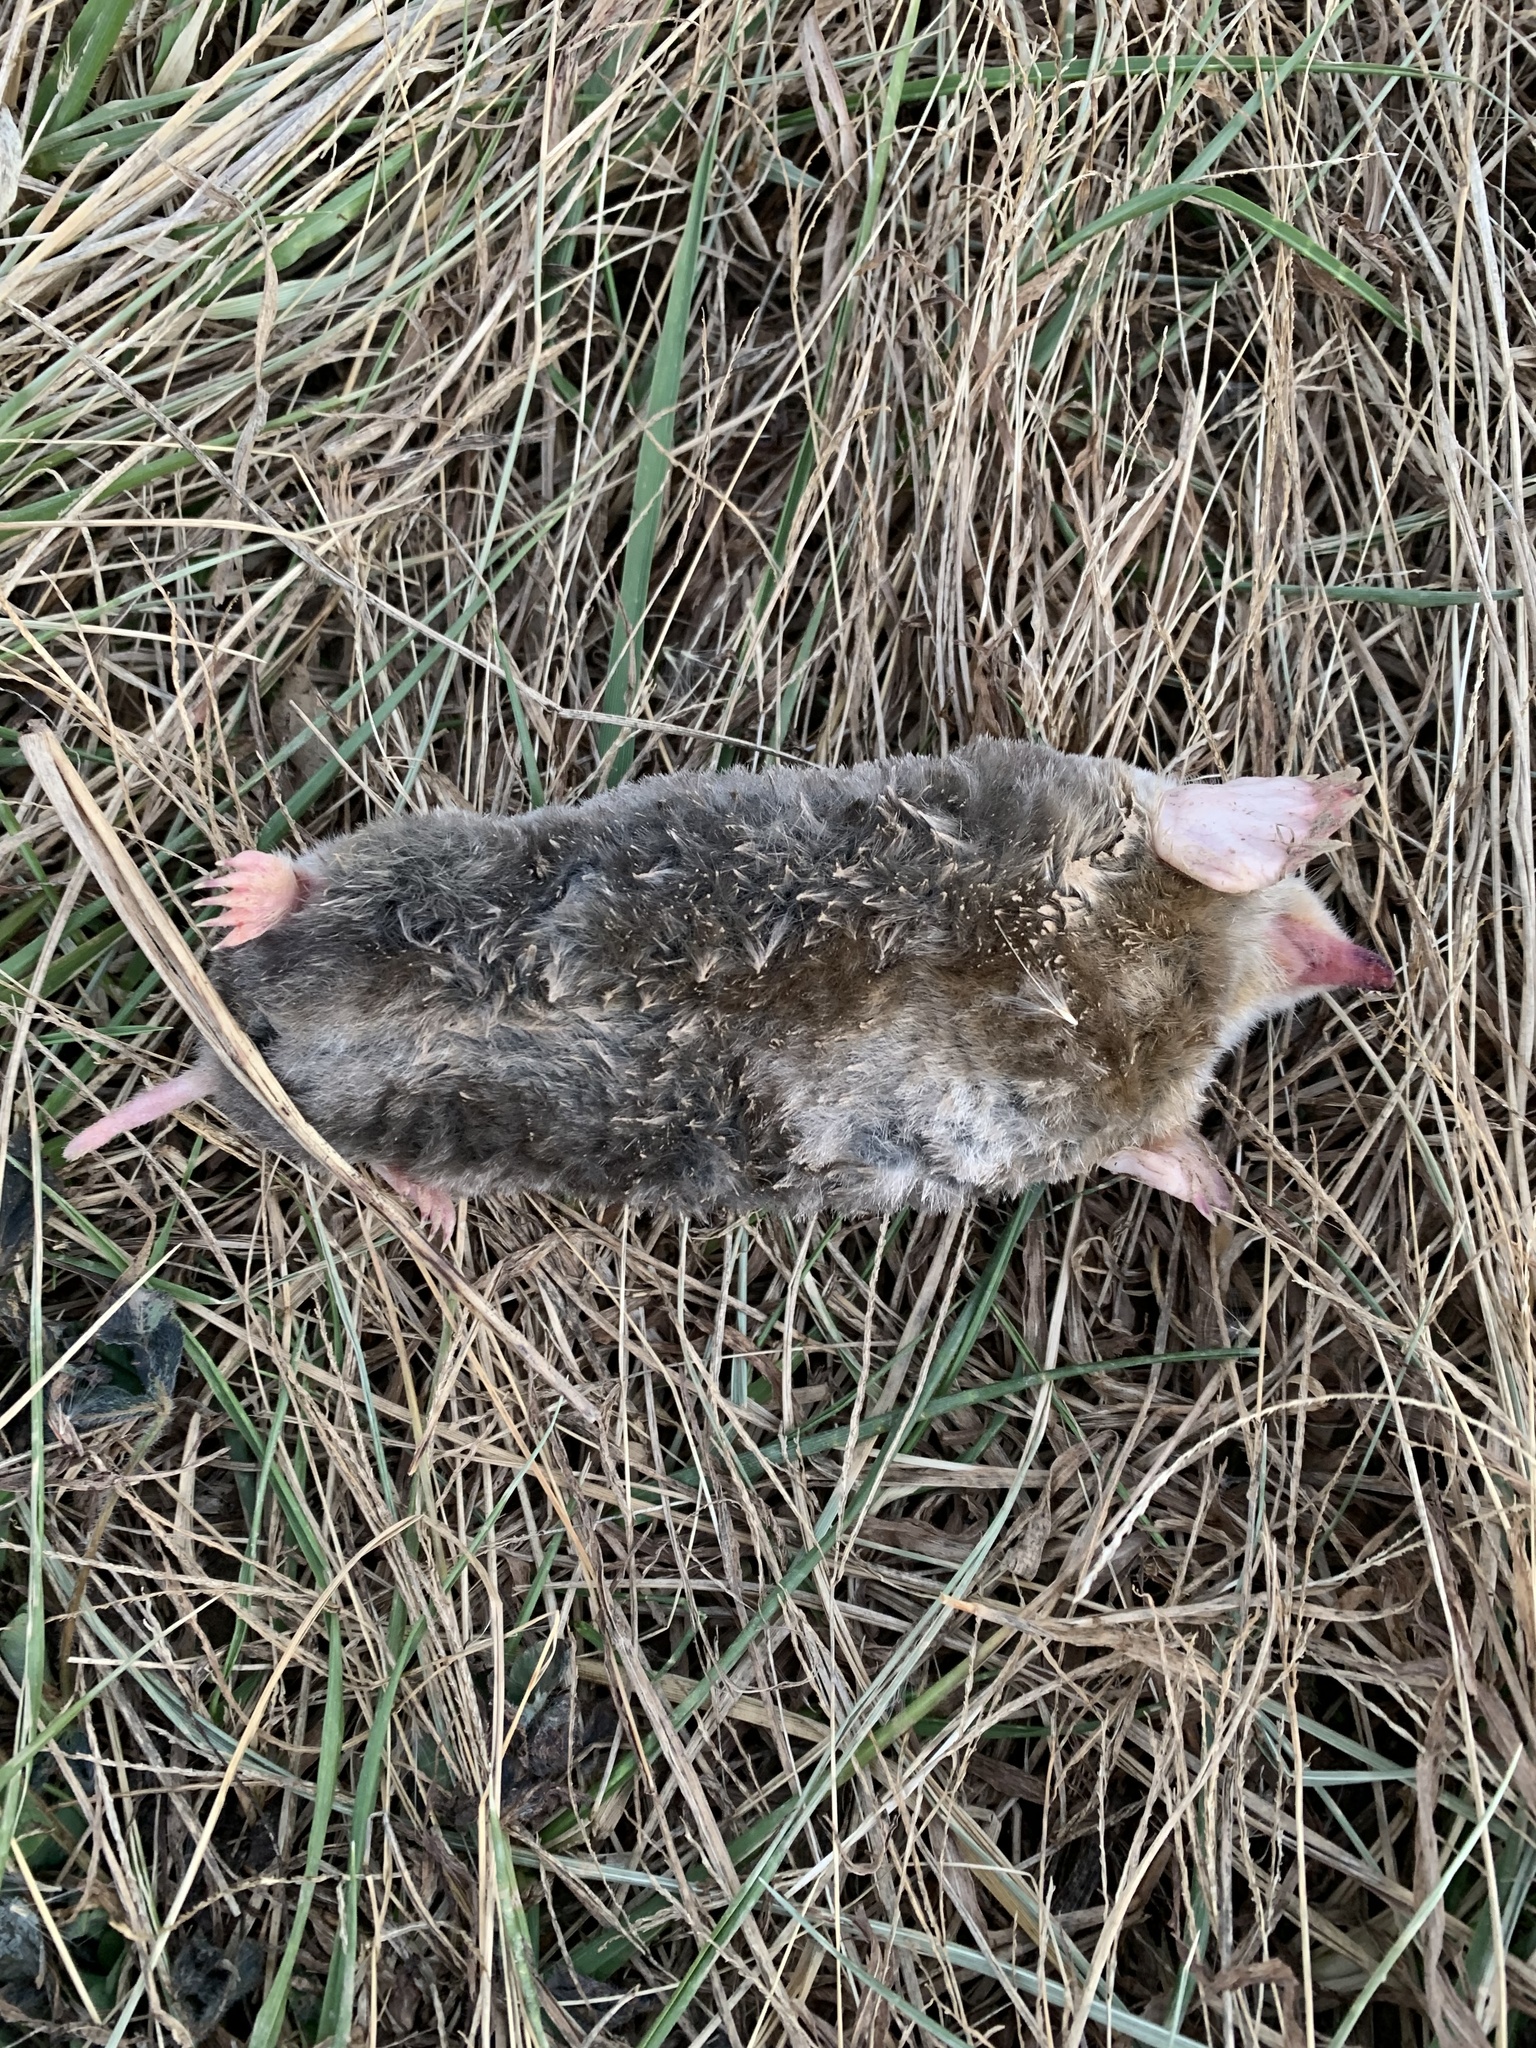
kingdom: Animalia
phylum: Chordata
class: Mammalia
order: Soricomorpha
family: Talpidae
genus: Scalopus
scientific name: Scalopus aquaticus
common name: Eastern mole
